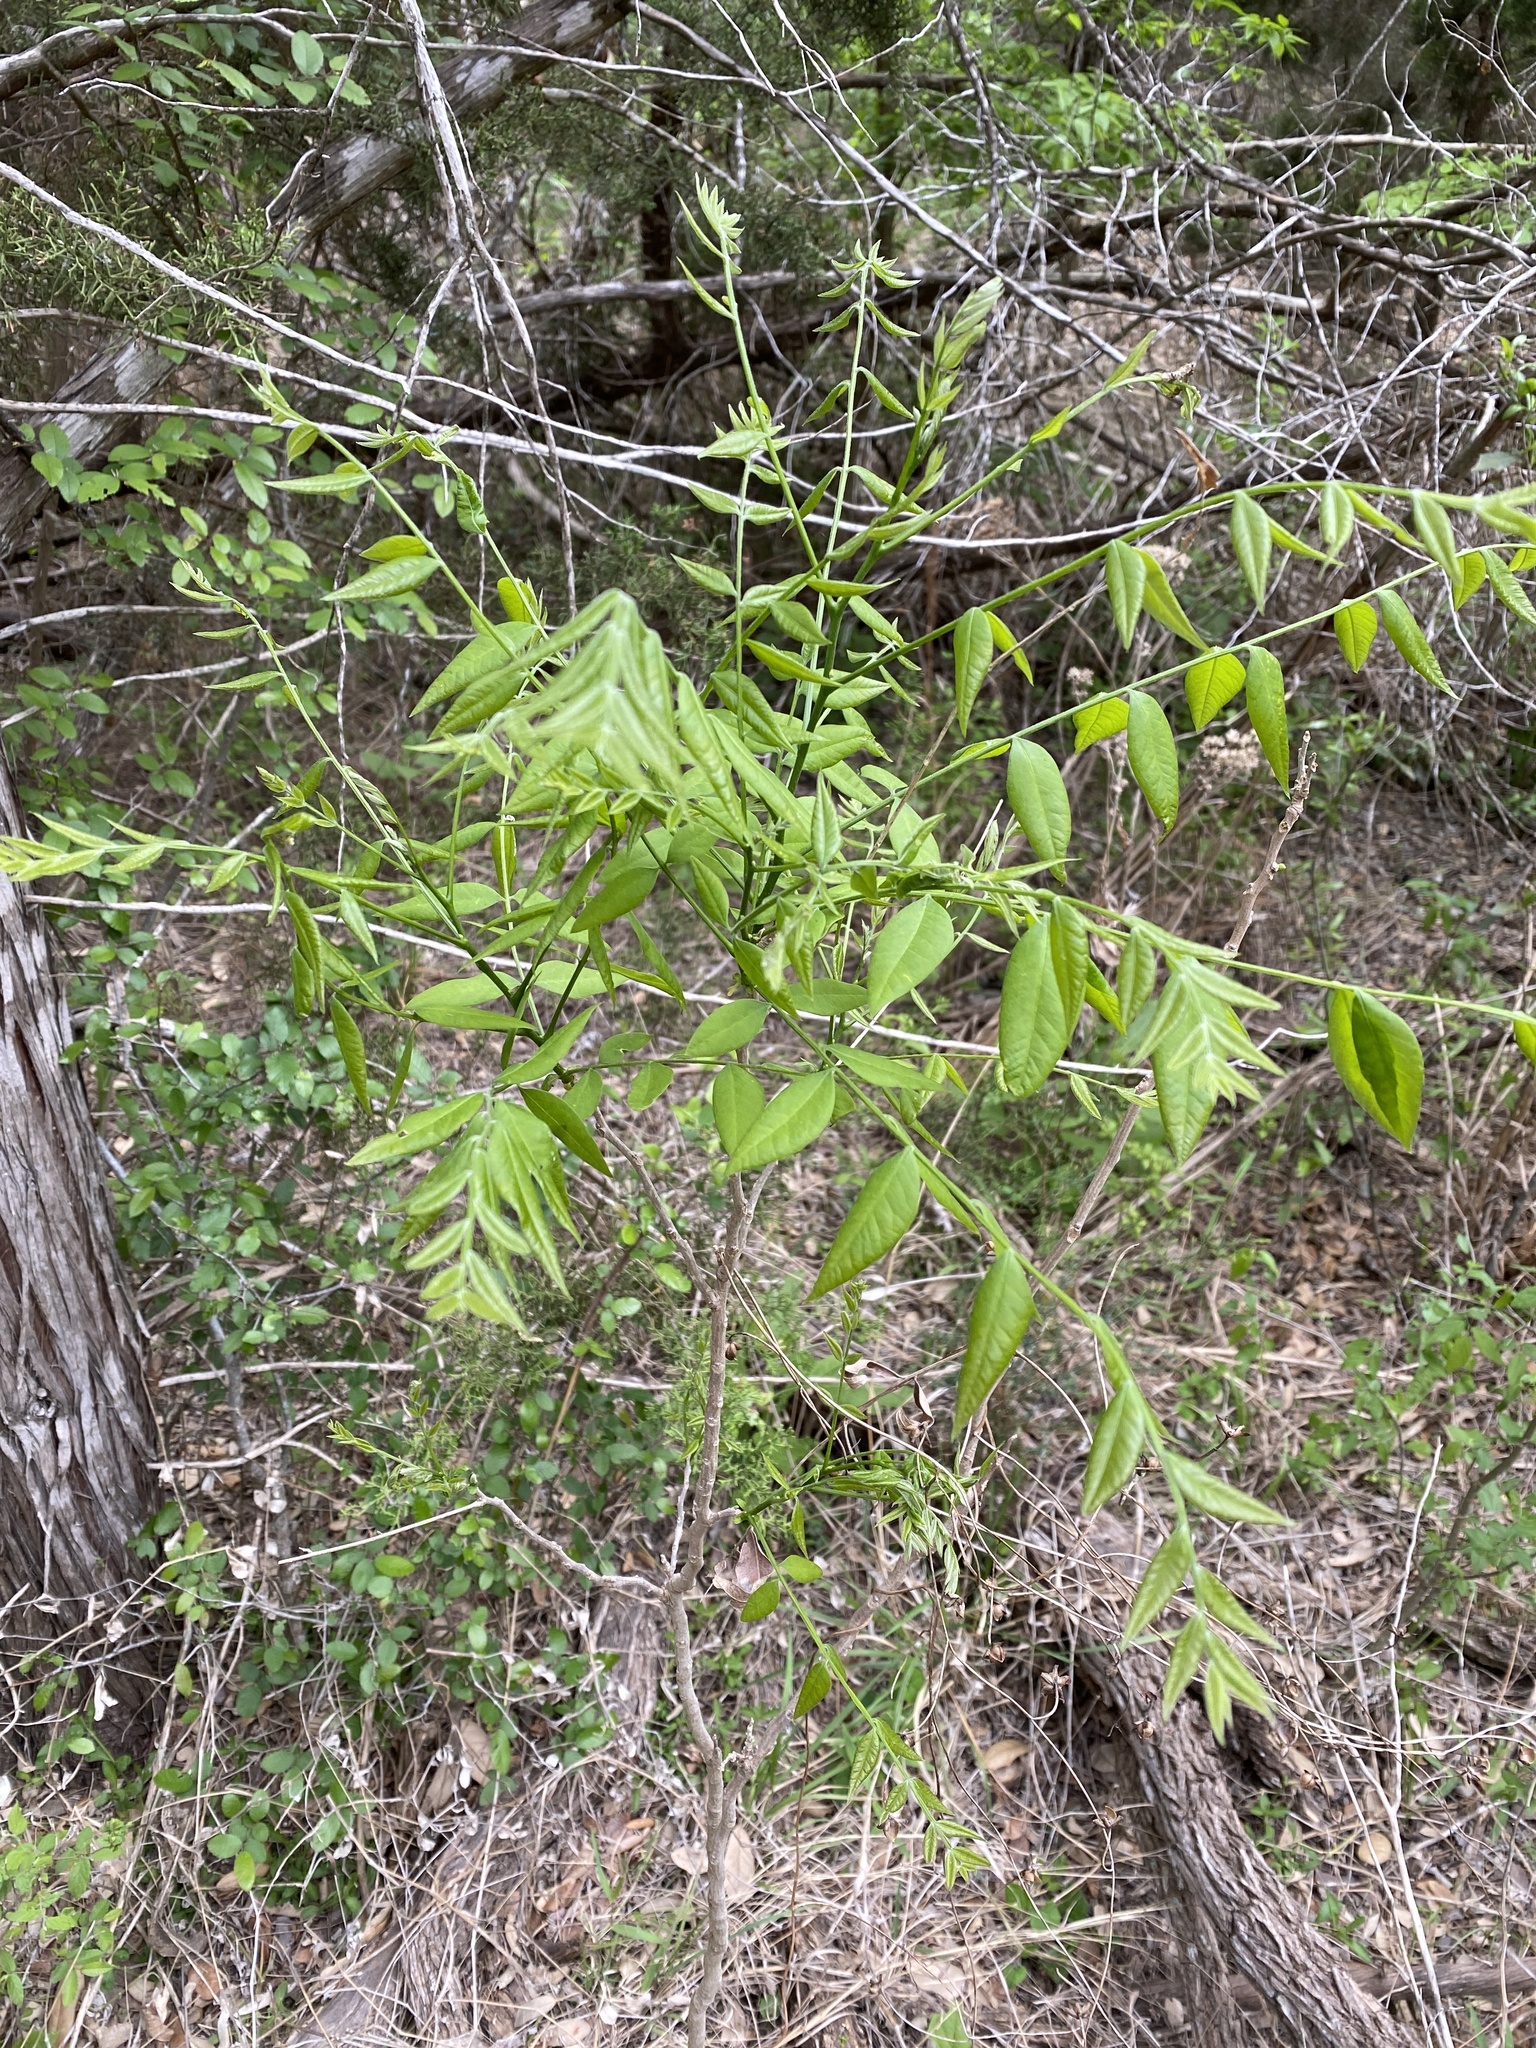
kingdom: Plantae
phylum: Tracheophyta
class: Magnoliopsida
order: Sapindales
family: Sapindaceae
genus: Sapindus
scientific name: Sapindus drummondii
